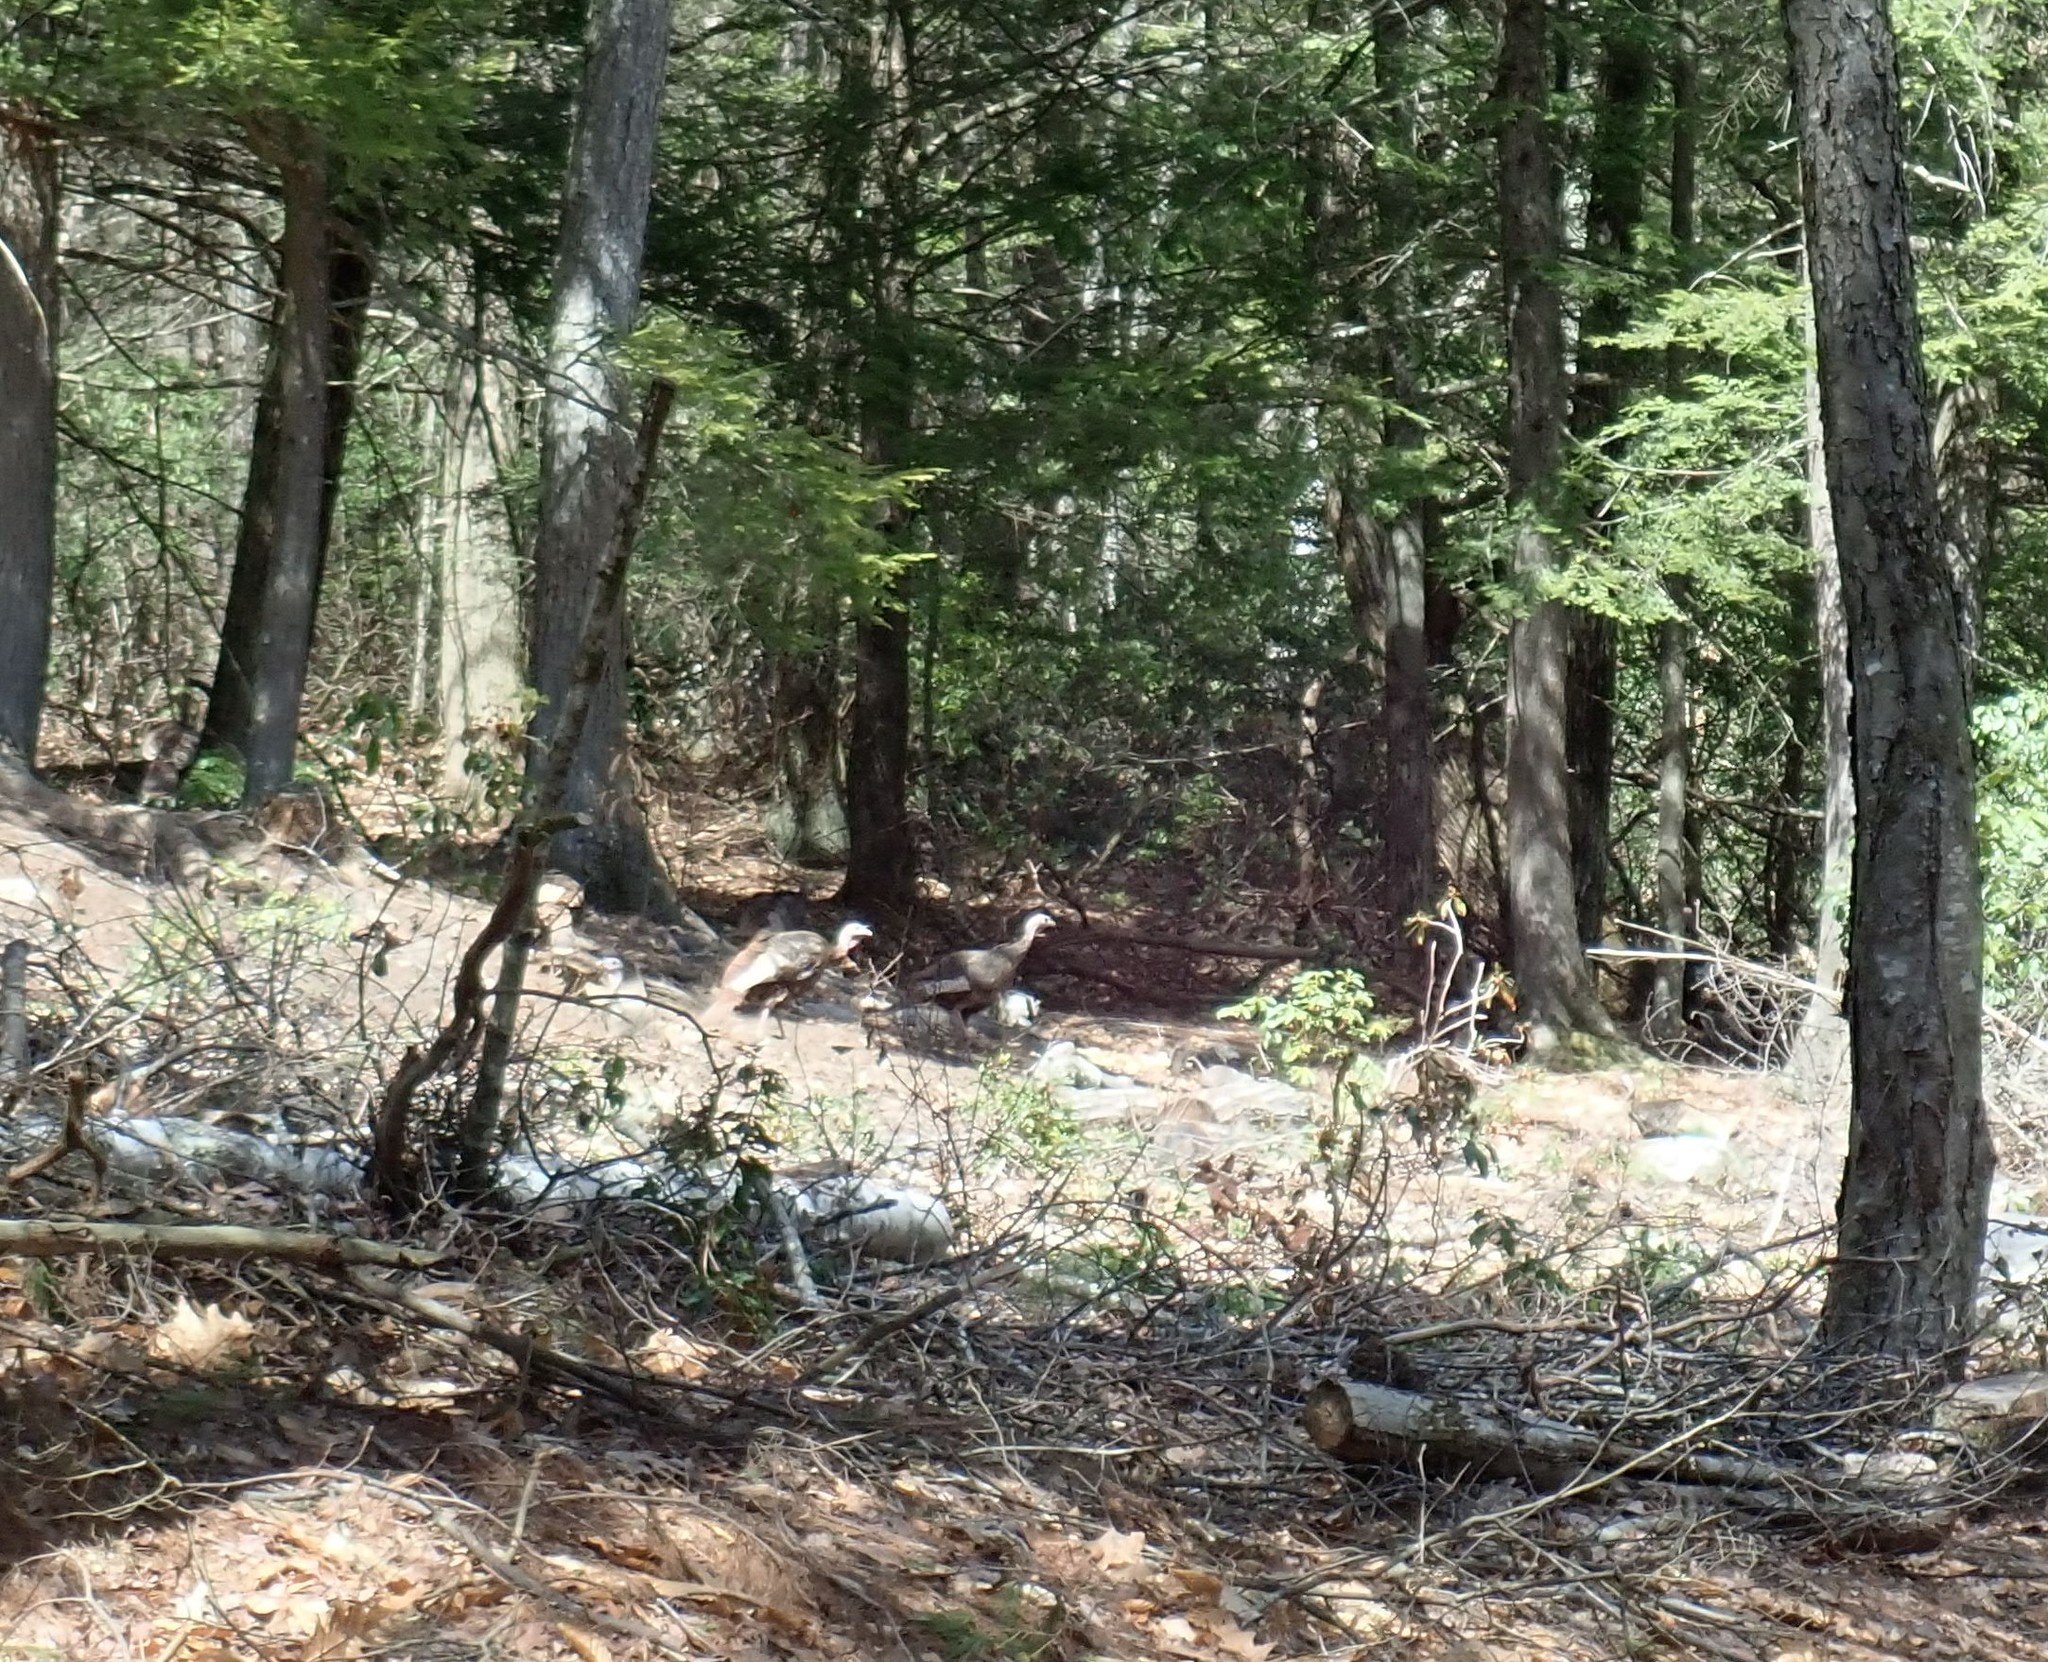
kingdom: Animalia
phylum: Chordata
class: Aves
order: Galliformes
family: Phasianidae
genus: Meleagris
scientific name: Meleagris gallopavo
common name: Wild turkey
